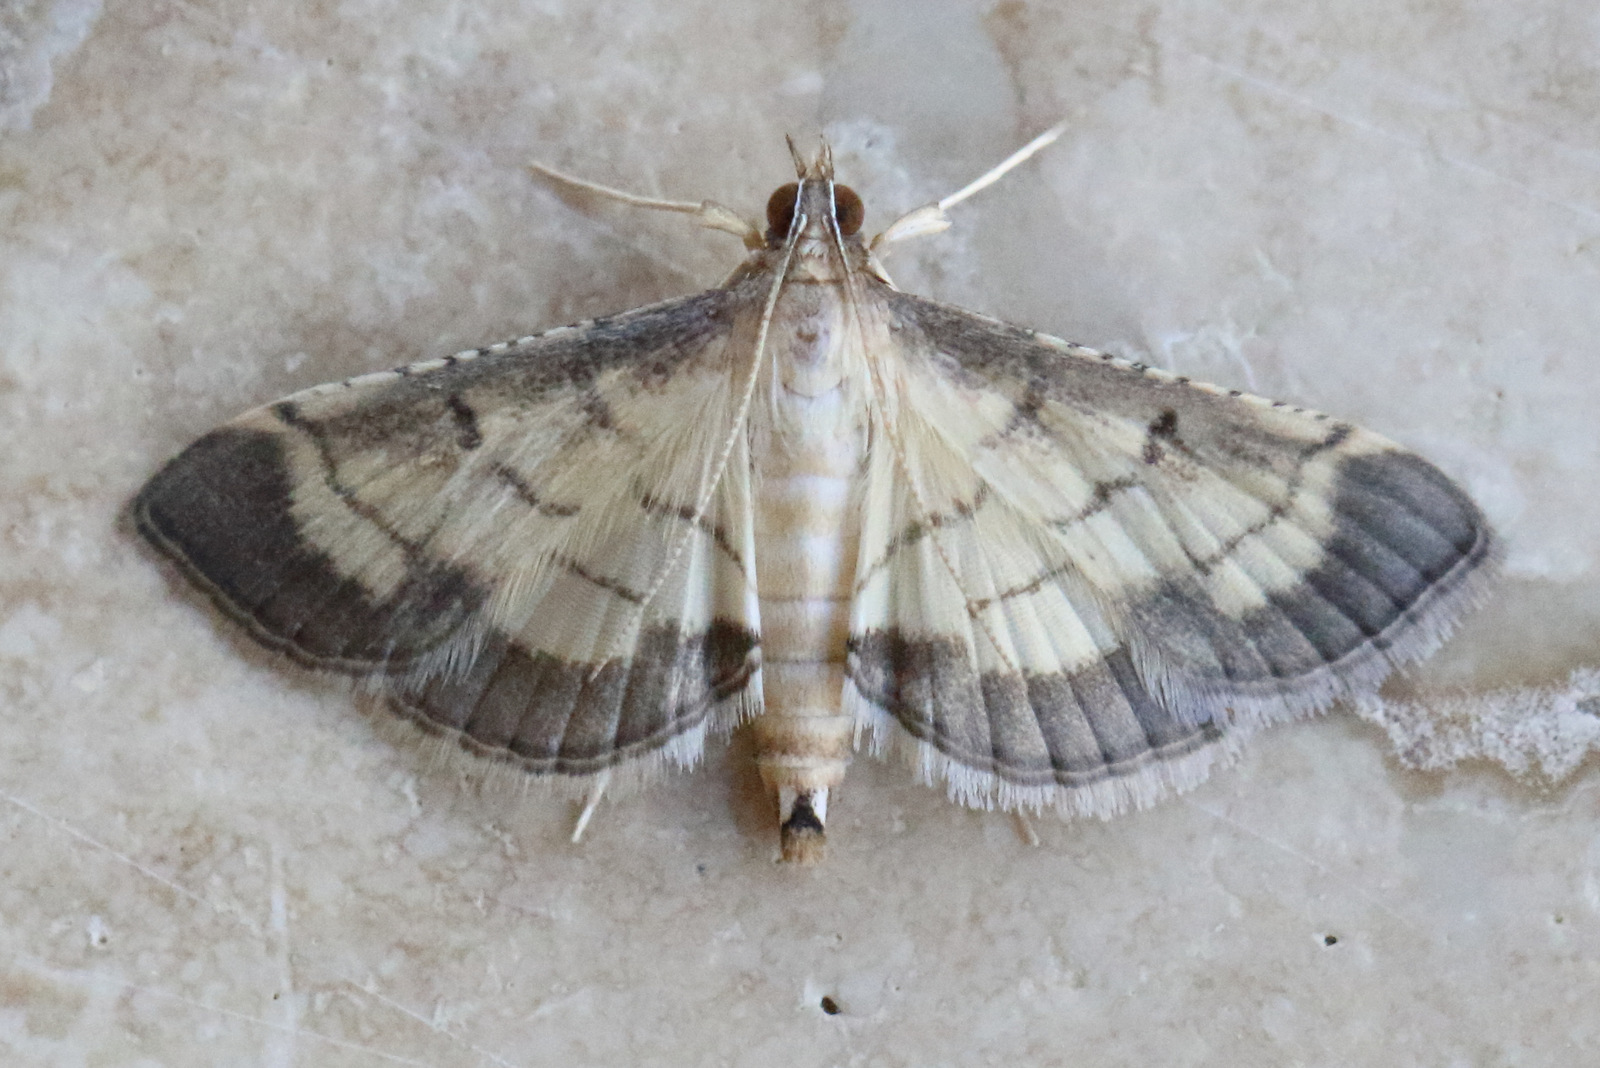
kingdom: Animalia
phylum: Arthropoda
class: Insecta
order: Lepidoptera
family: Crambidae
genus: Cnaphalocrocis
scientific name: Cnaphalocrocis poeyalis
